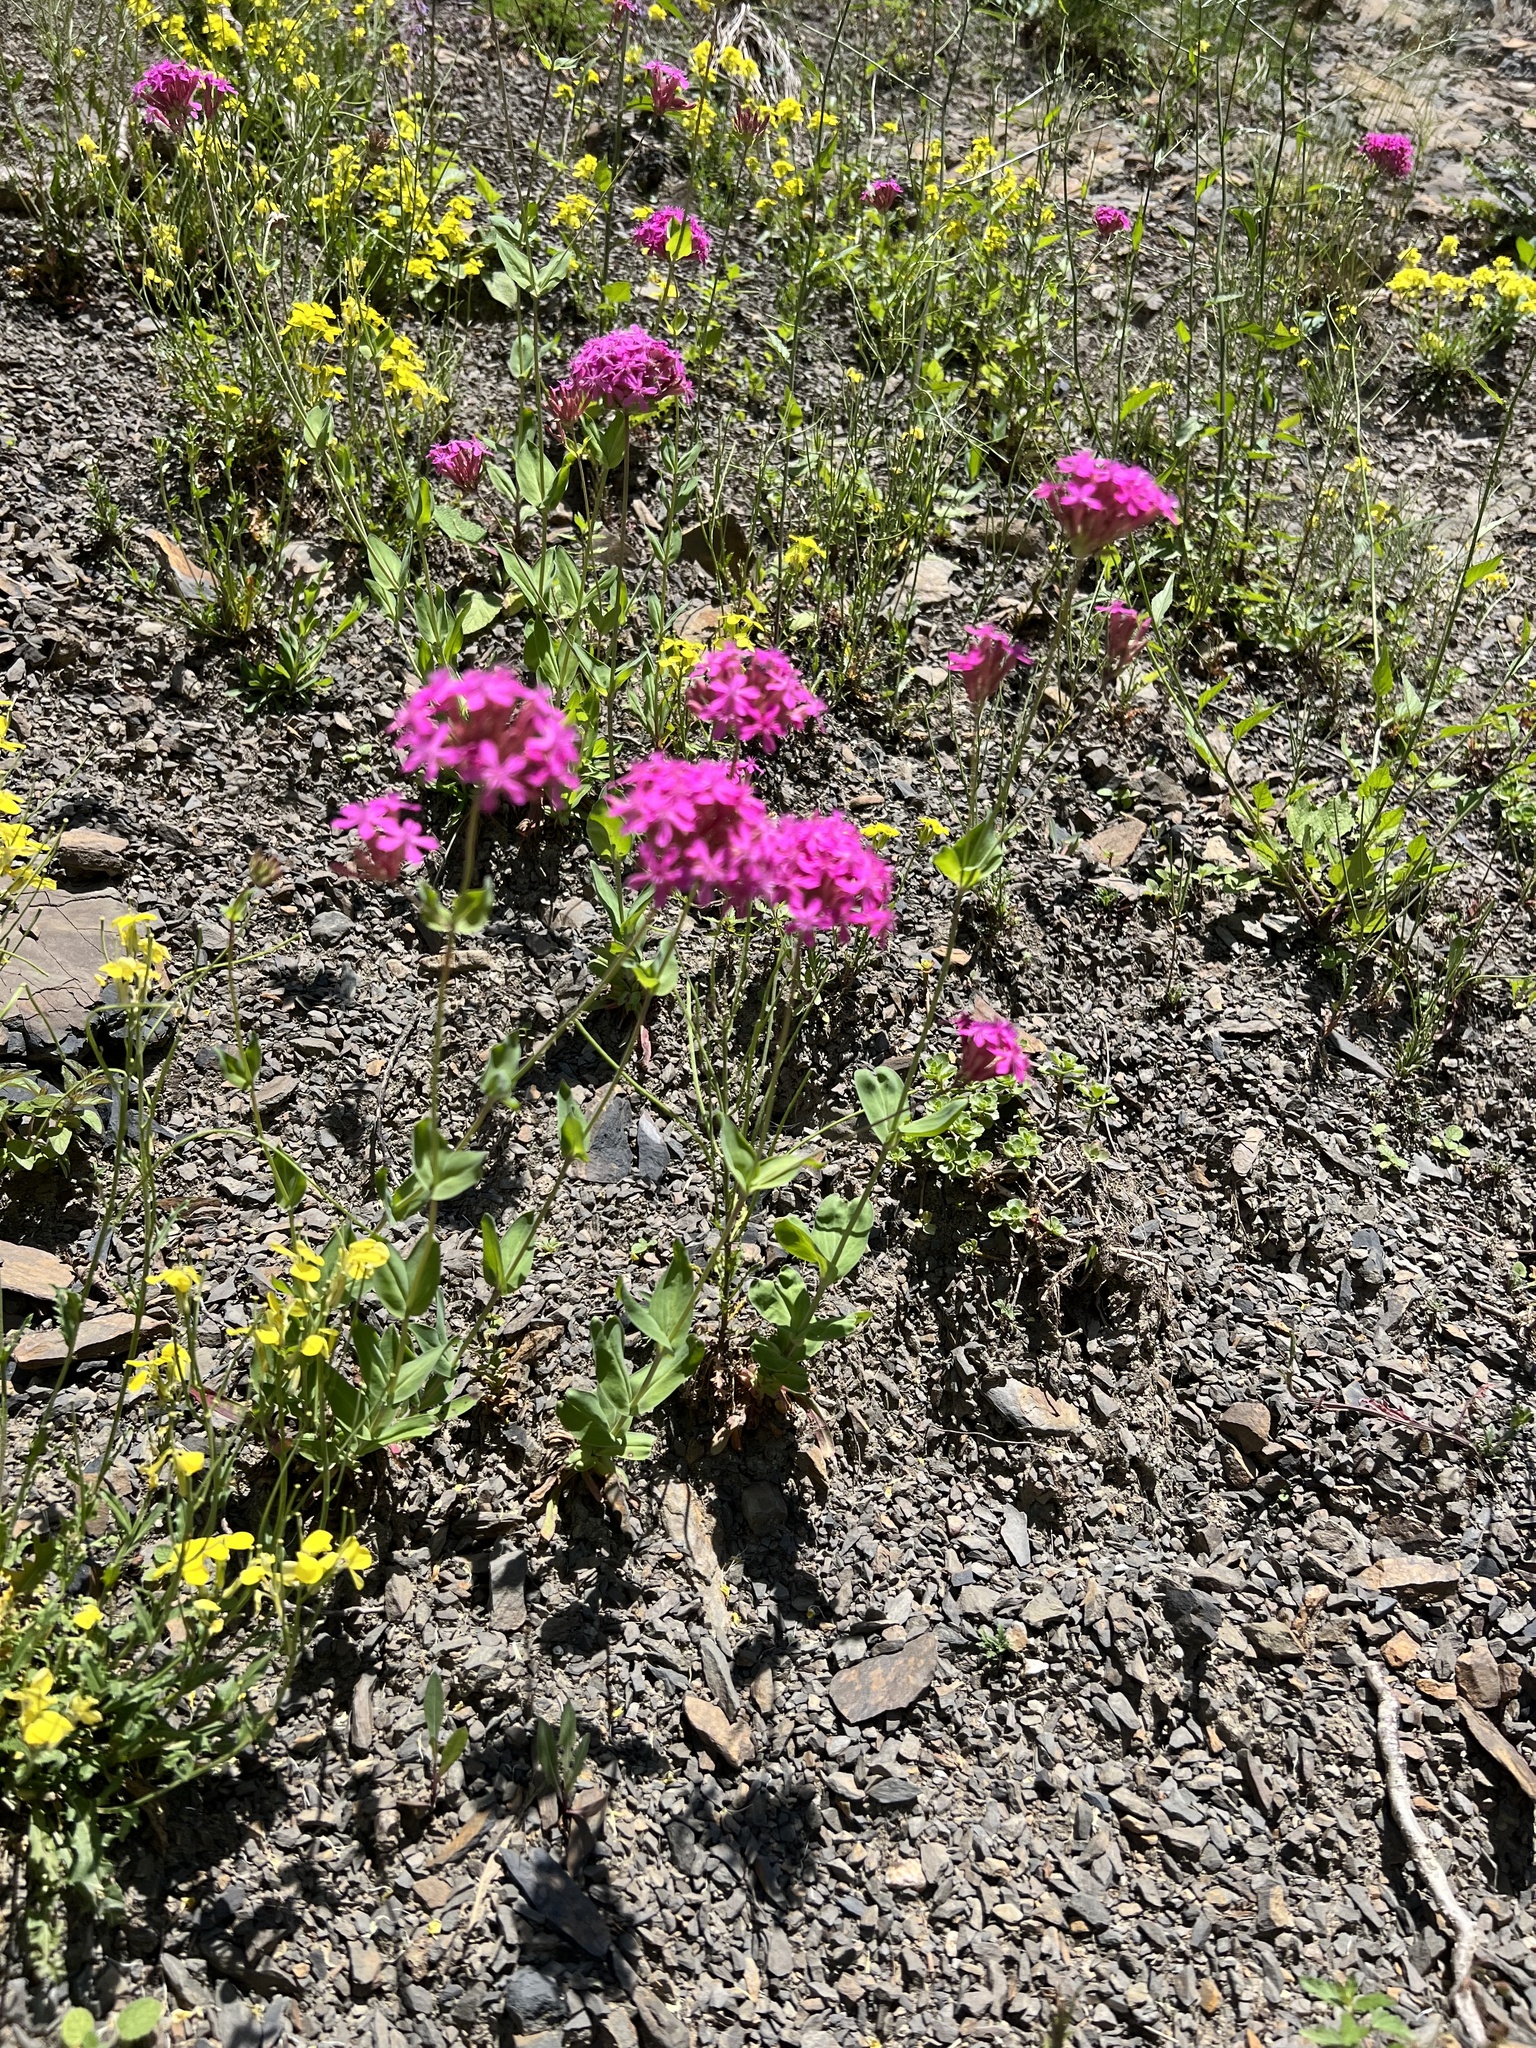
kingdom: Plantae
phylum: Tracheophyta
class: Magnoliopsida
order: Caryophyllales
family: Caryophyllaceae
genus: Atocion
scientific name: Atocion compactum
